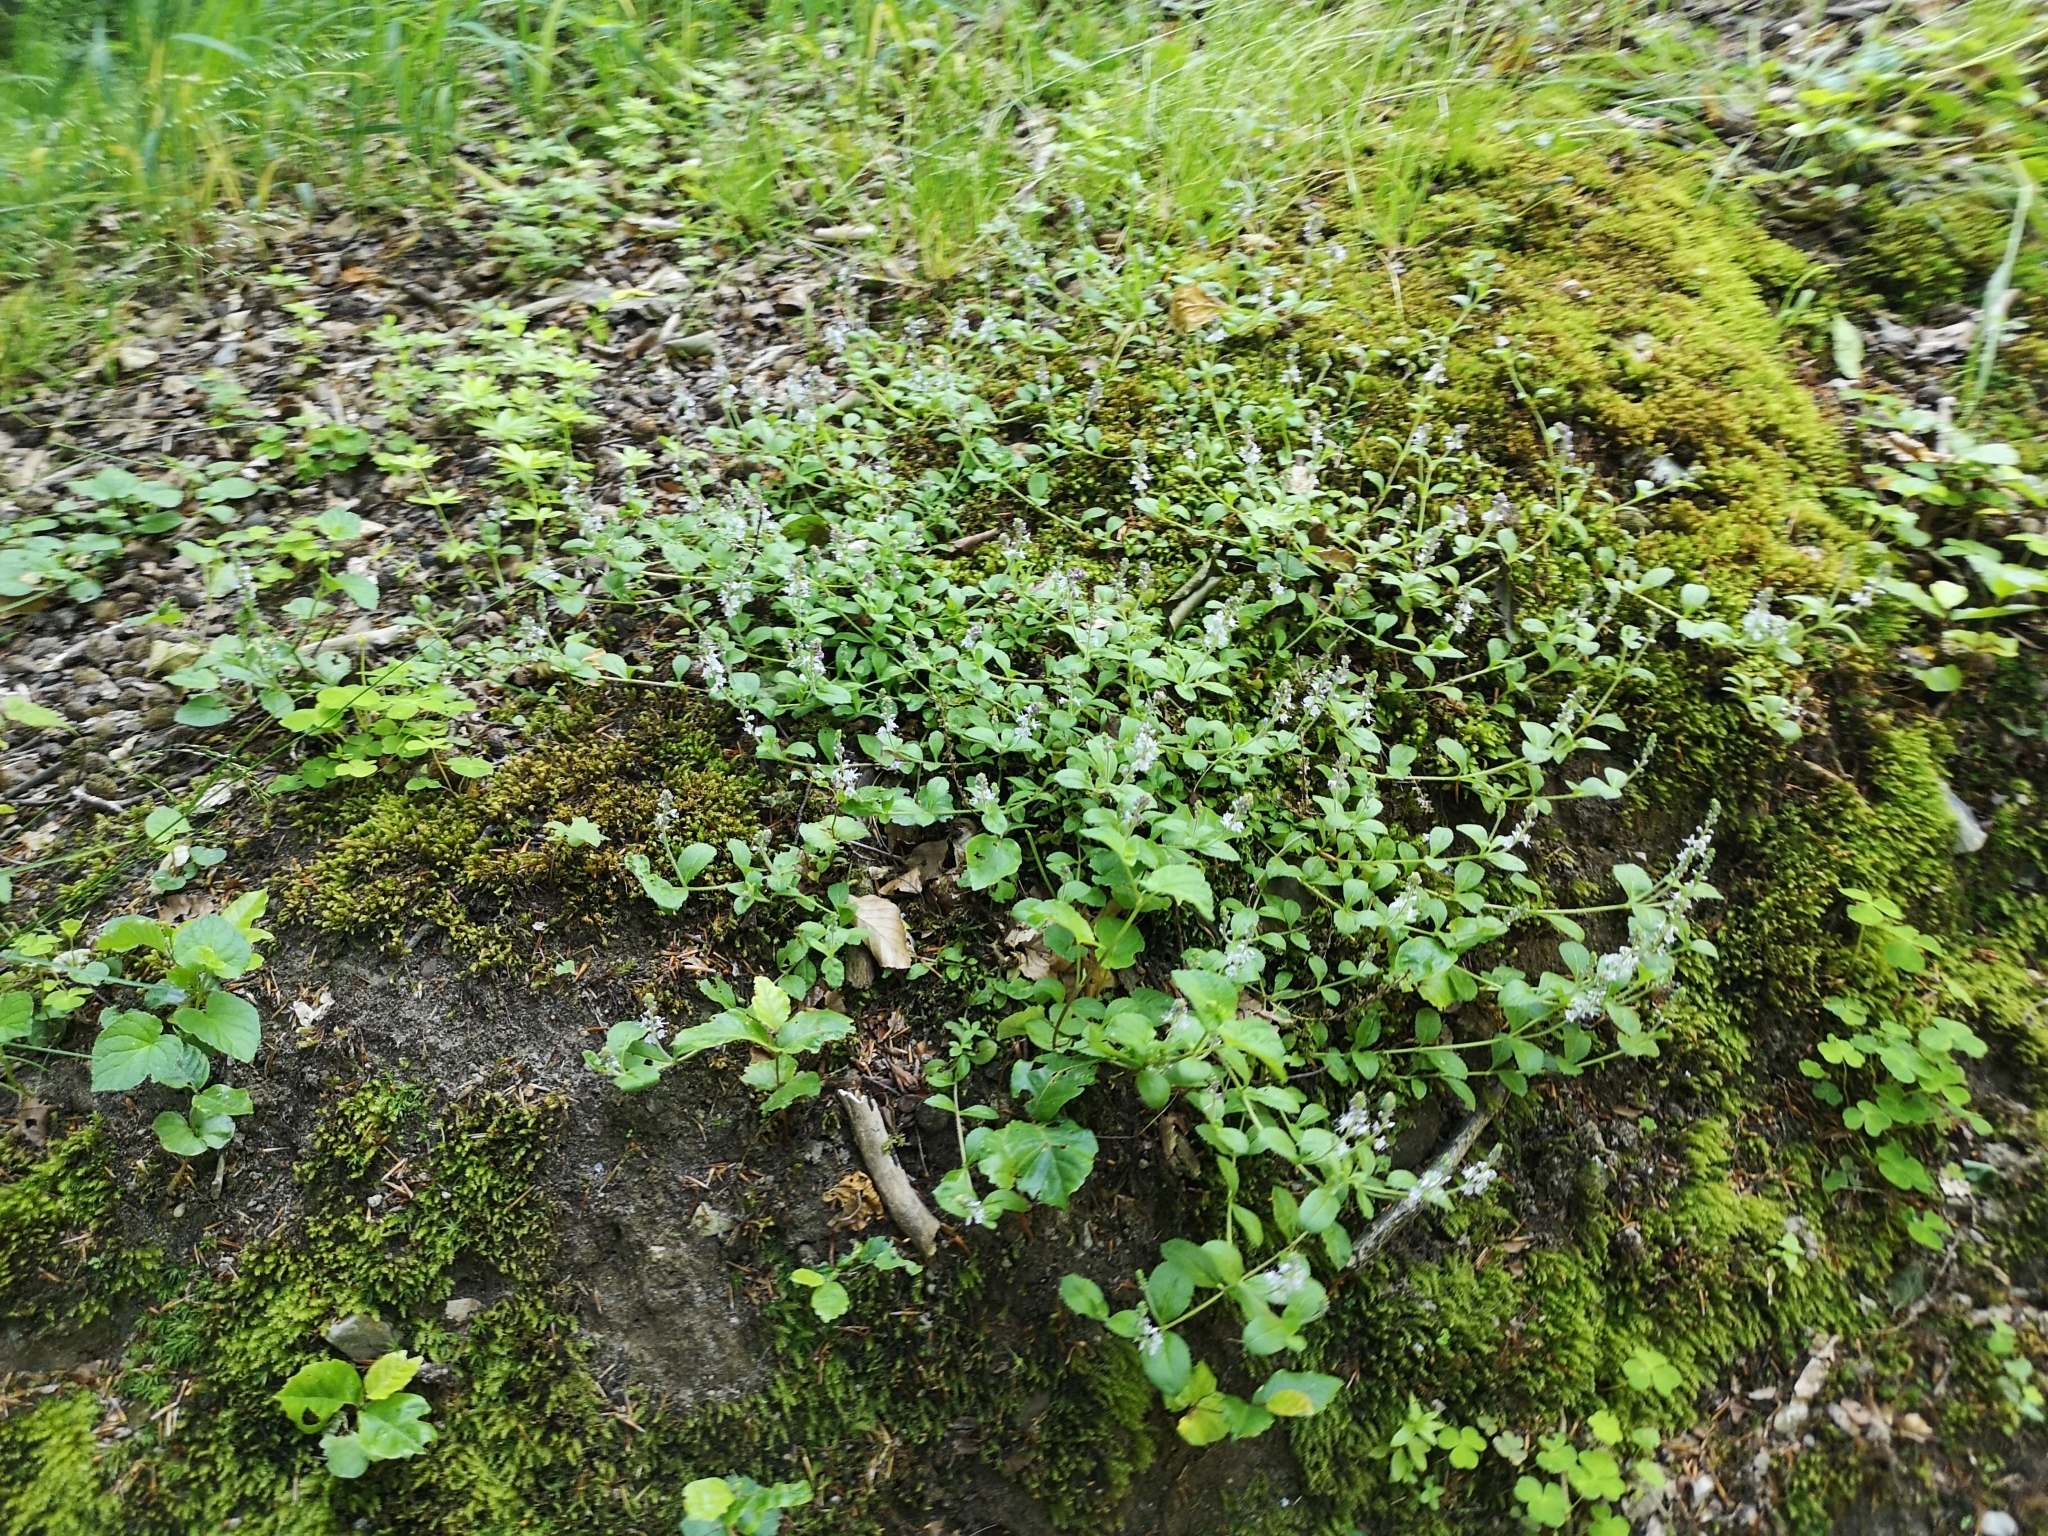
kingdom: Plantae
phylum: Tracheophyta
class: Magnoliopsida
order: Lamiales
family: Plantaginaceae
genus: Veronica
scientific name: Veronica officinalis
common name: Common speedwell
